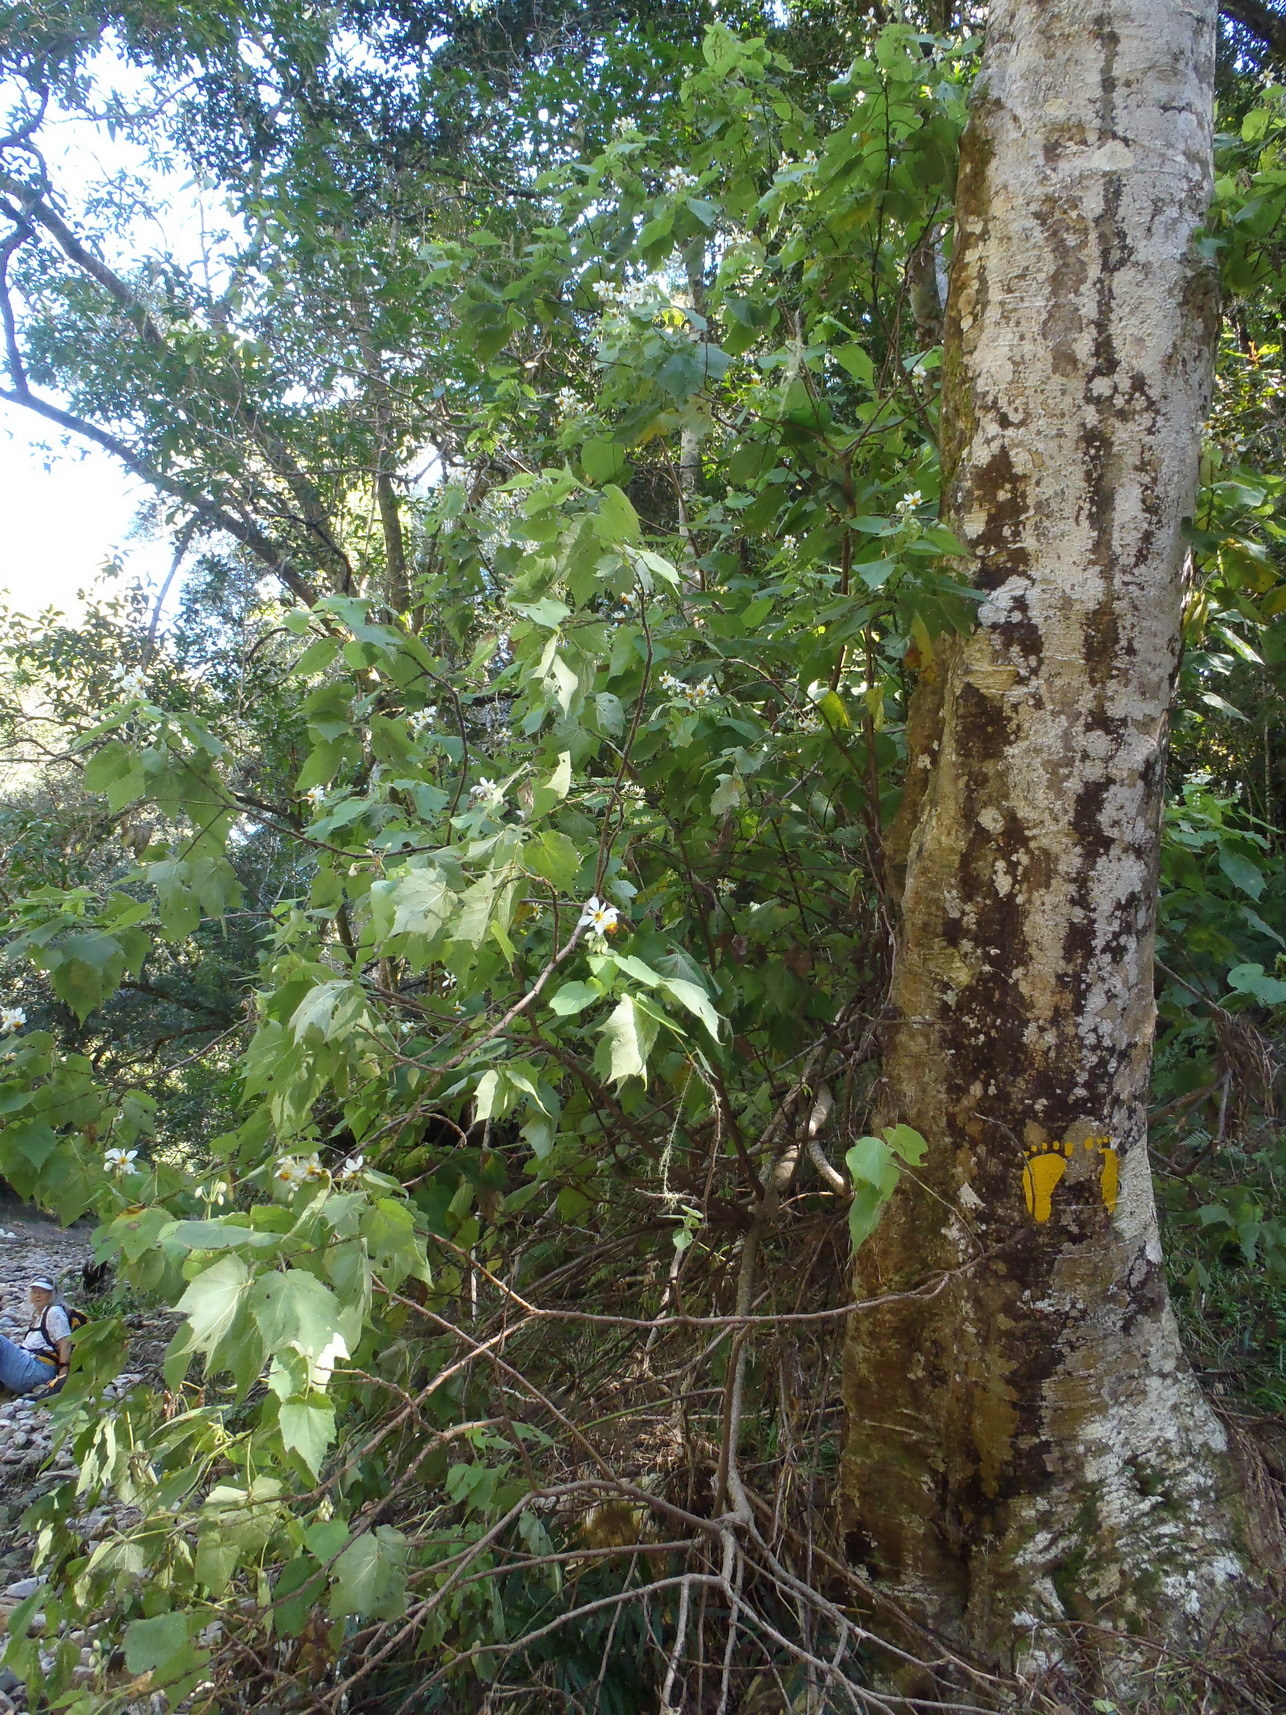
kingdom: Plantae
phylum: Tracheophyta
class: Magnoliopsida
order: Malvales
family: Malvaceae
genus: Sparrmannia
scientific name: Sparrmannia africana
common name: African-hemp
